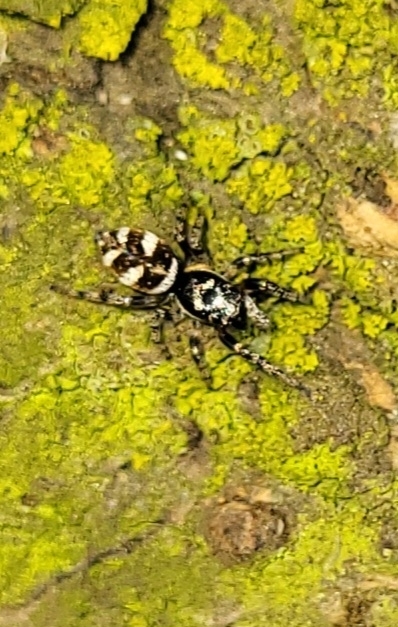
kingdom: Animalia
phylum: Arthropoda
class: Arachnida
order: Araneae
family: Salticidae
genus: Salticus
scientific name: Salticus scenicus
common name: Zebra jumper
